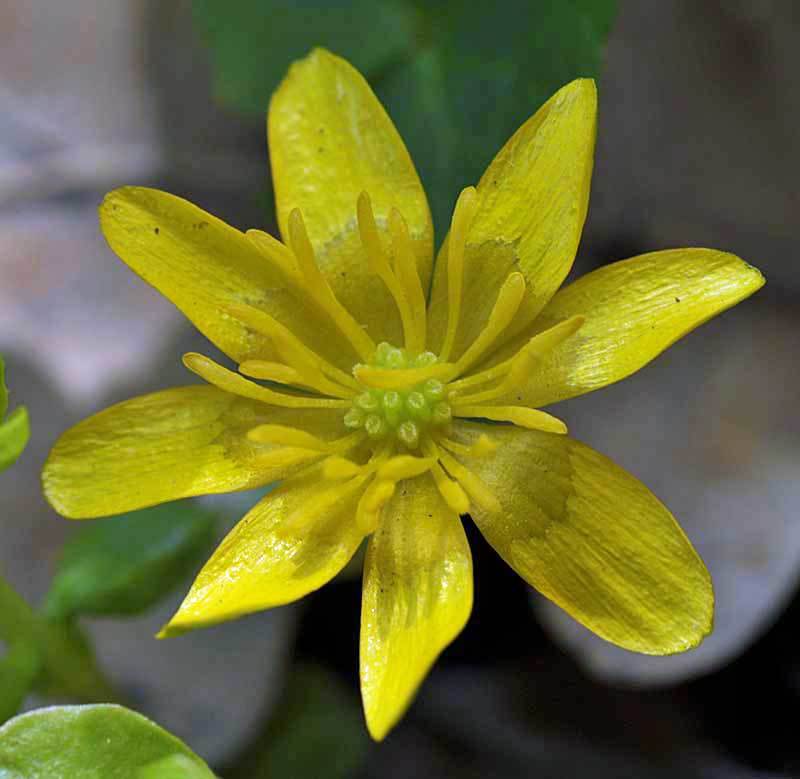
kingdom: Plantae
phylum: Tracheophyta
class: Magnoliopsida
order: Ranunculales
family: Ranunculaceae
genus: Ficaria
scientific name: Ficaria verna
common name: Lesser celandine
